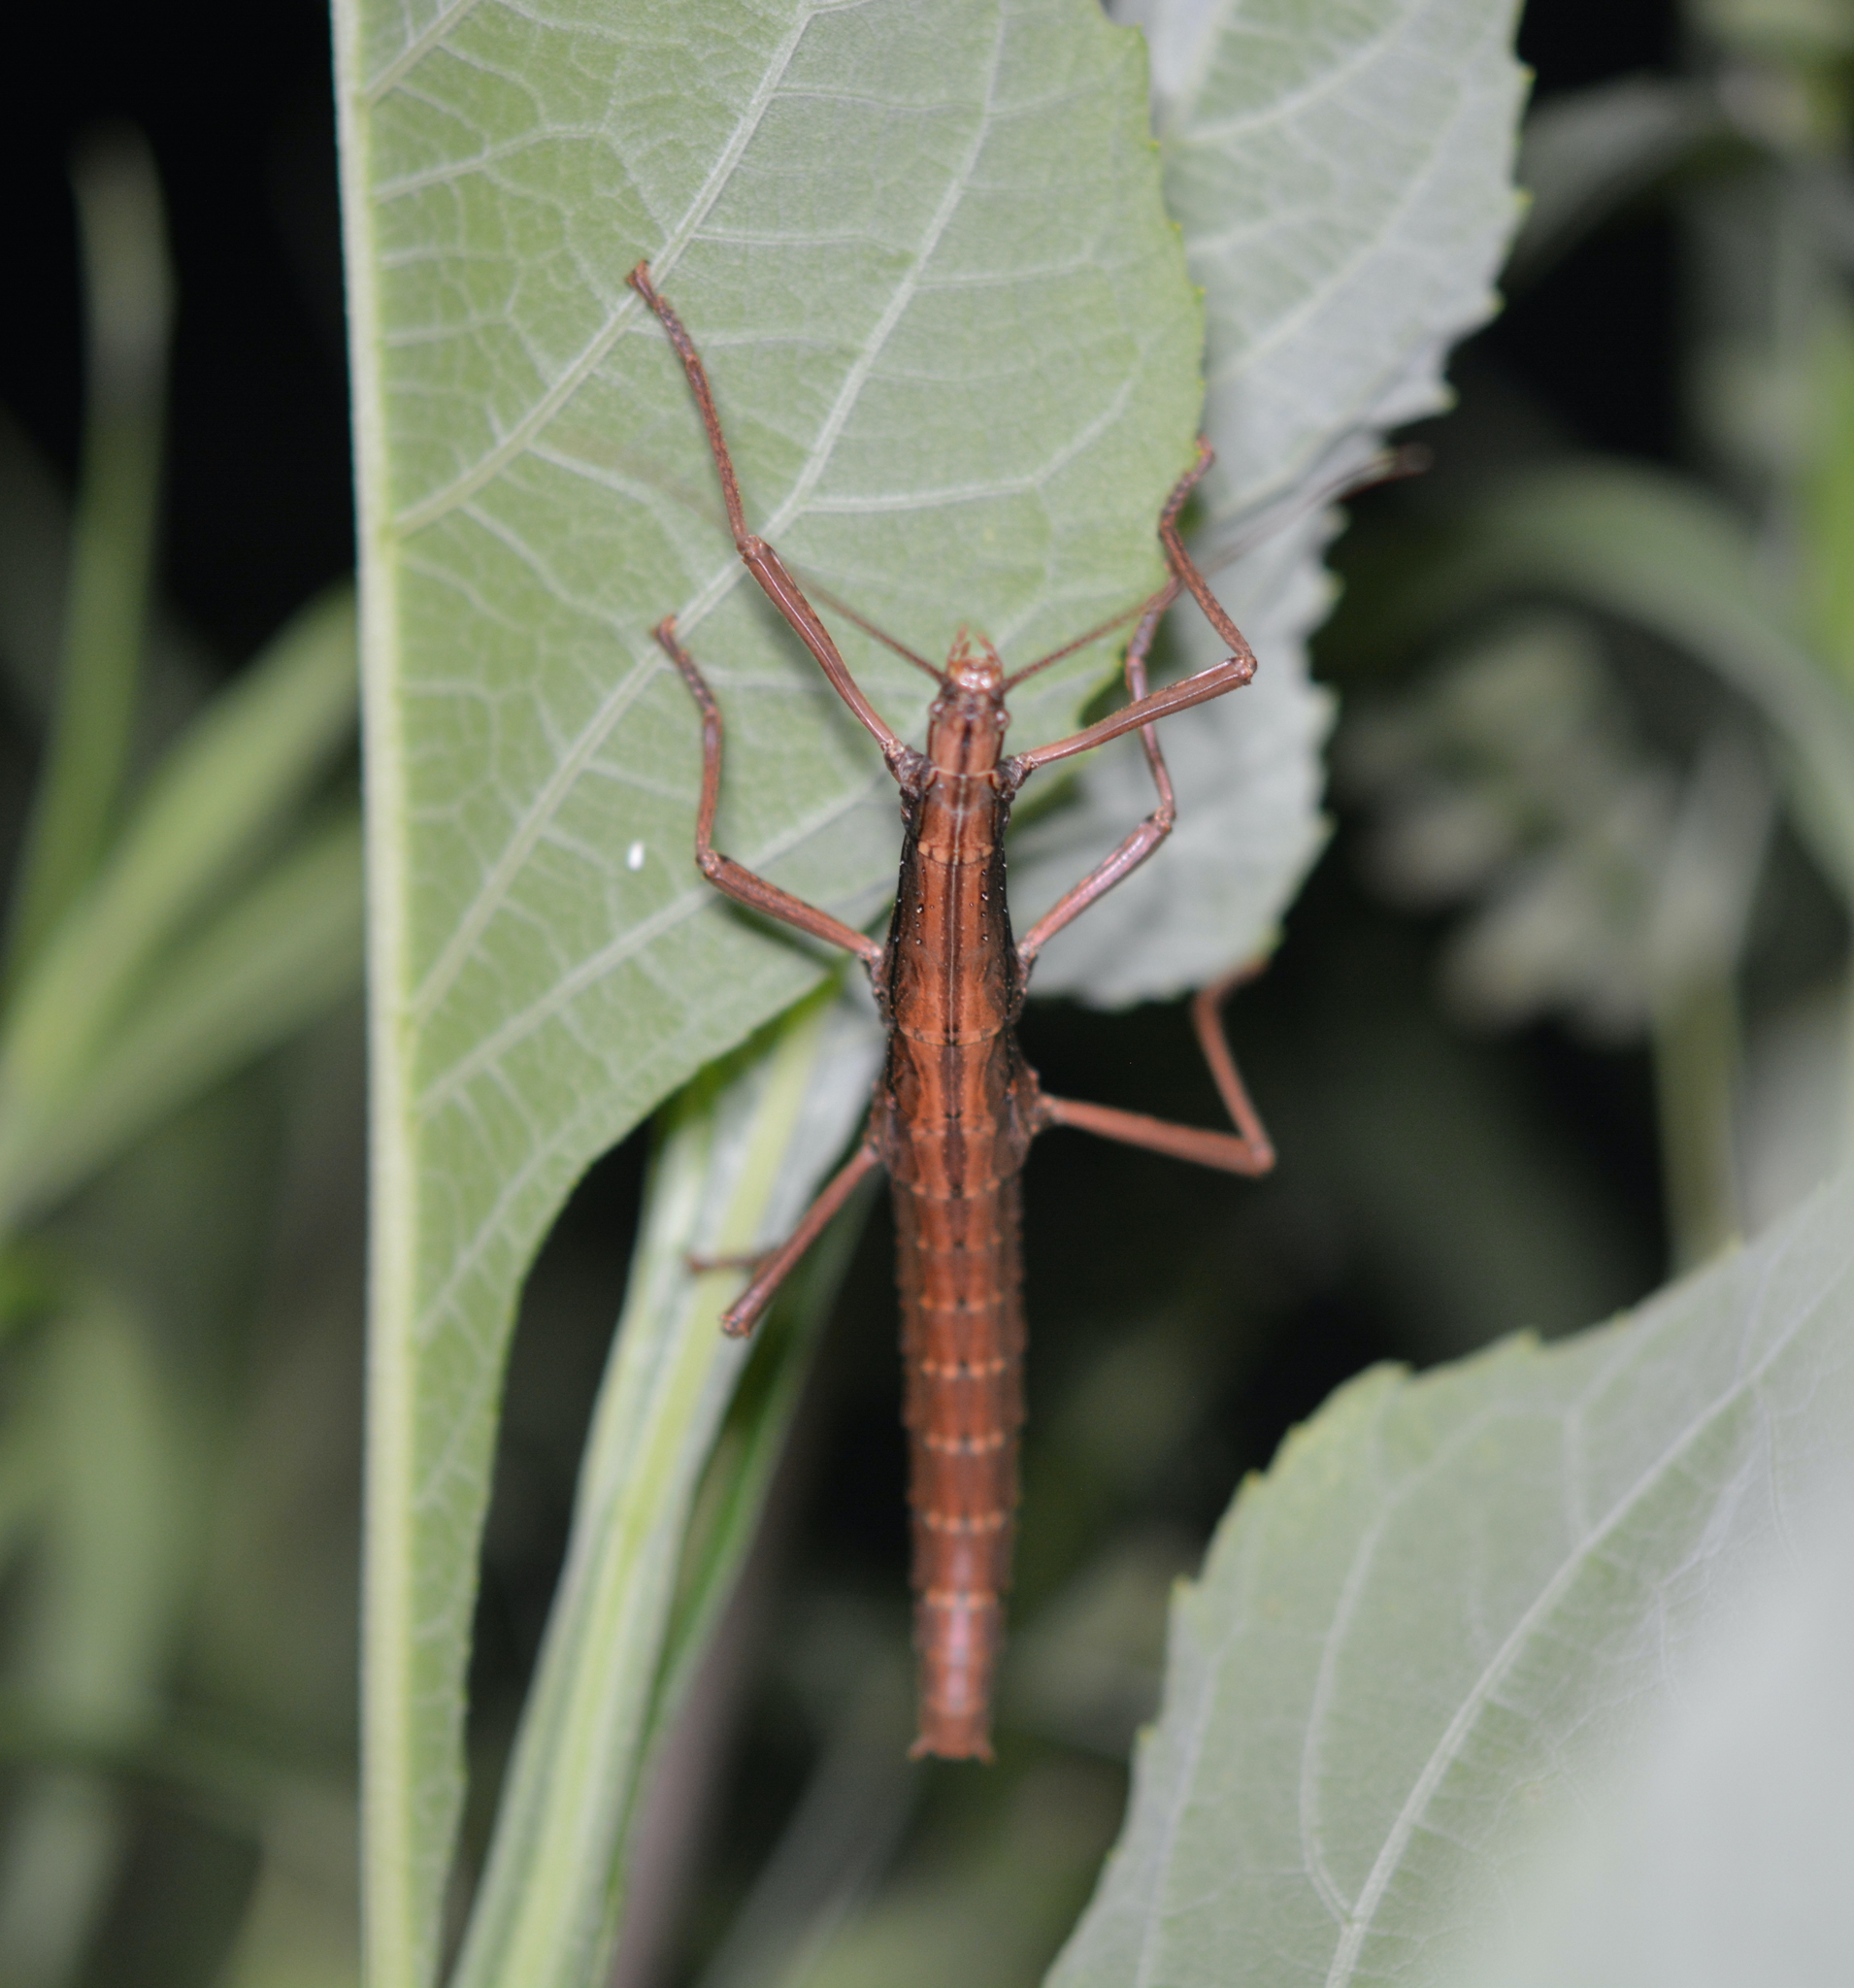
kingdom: Animalia
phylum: Arthropoda
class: Insecta
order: Phasmida
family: Pseudophasmatidae
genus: Anisomorpha
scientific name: Anisomorpha buprestoides
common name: Florida stick insect
